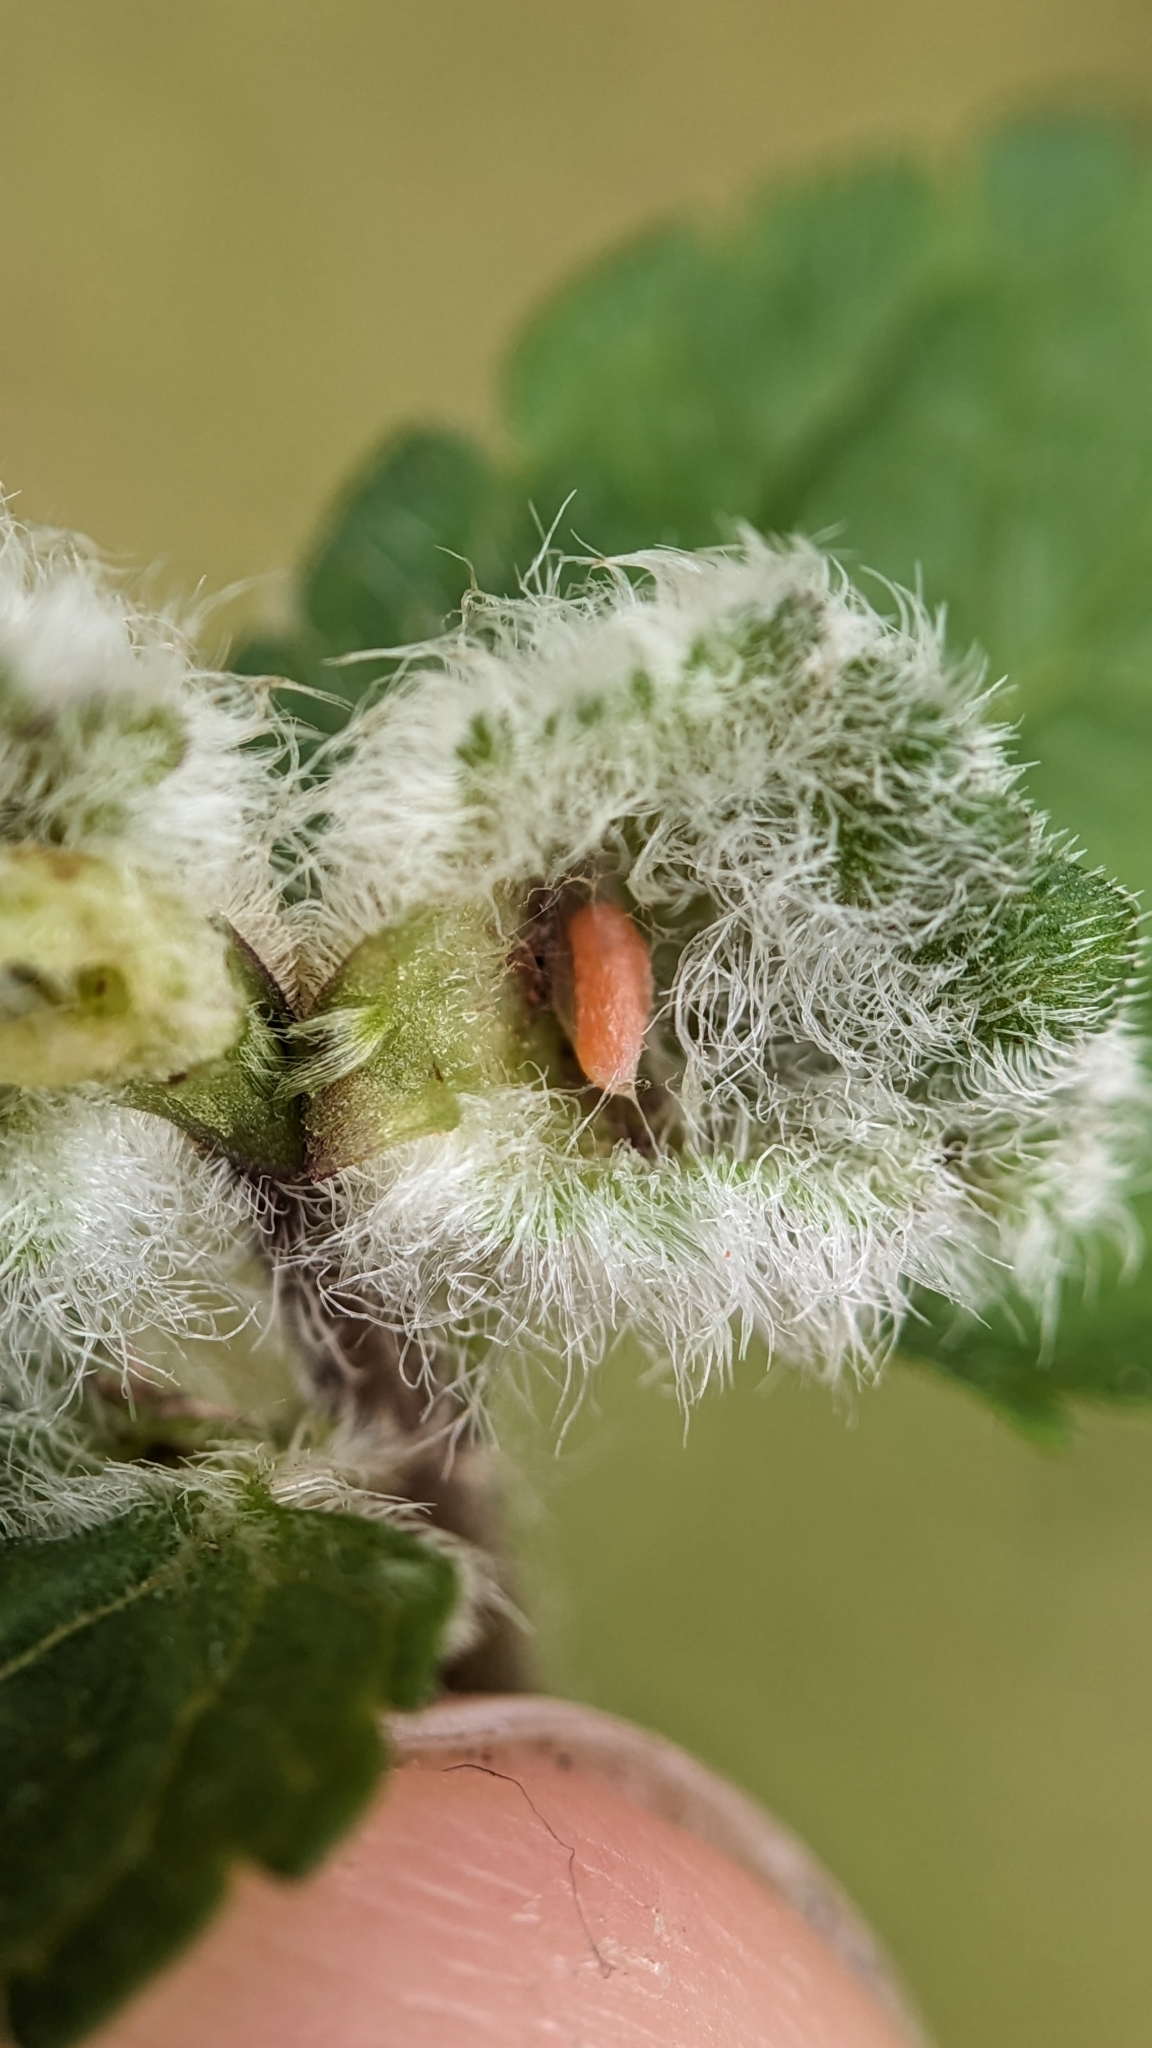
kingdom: Animalia
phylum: Arthropoda
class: Insecta
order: Diptera
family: Cecidomyiidae
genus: Jaapiella
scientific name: Jaapiella veronicae
